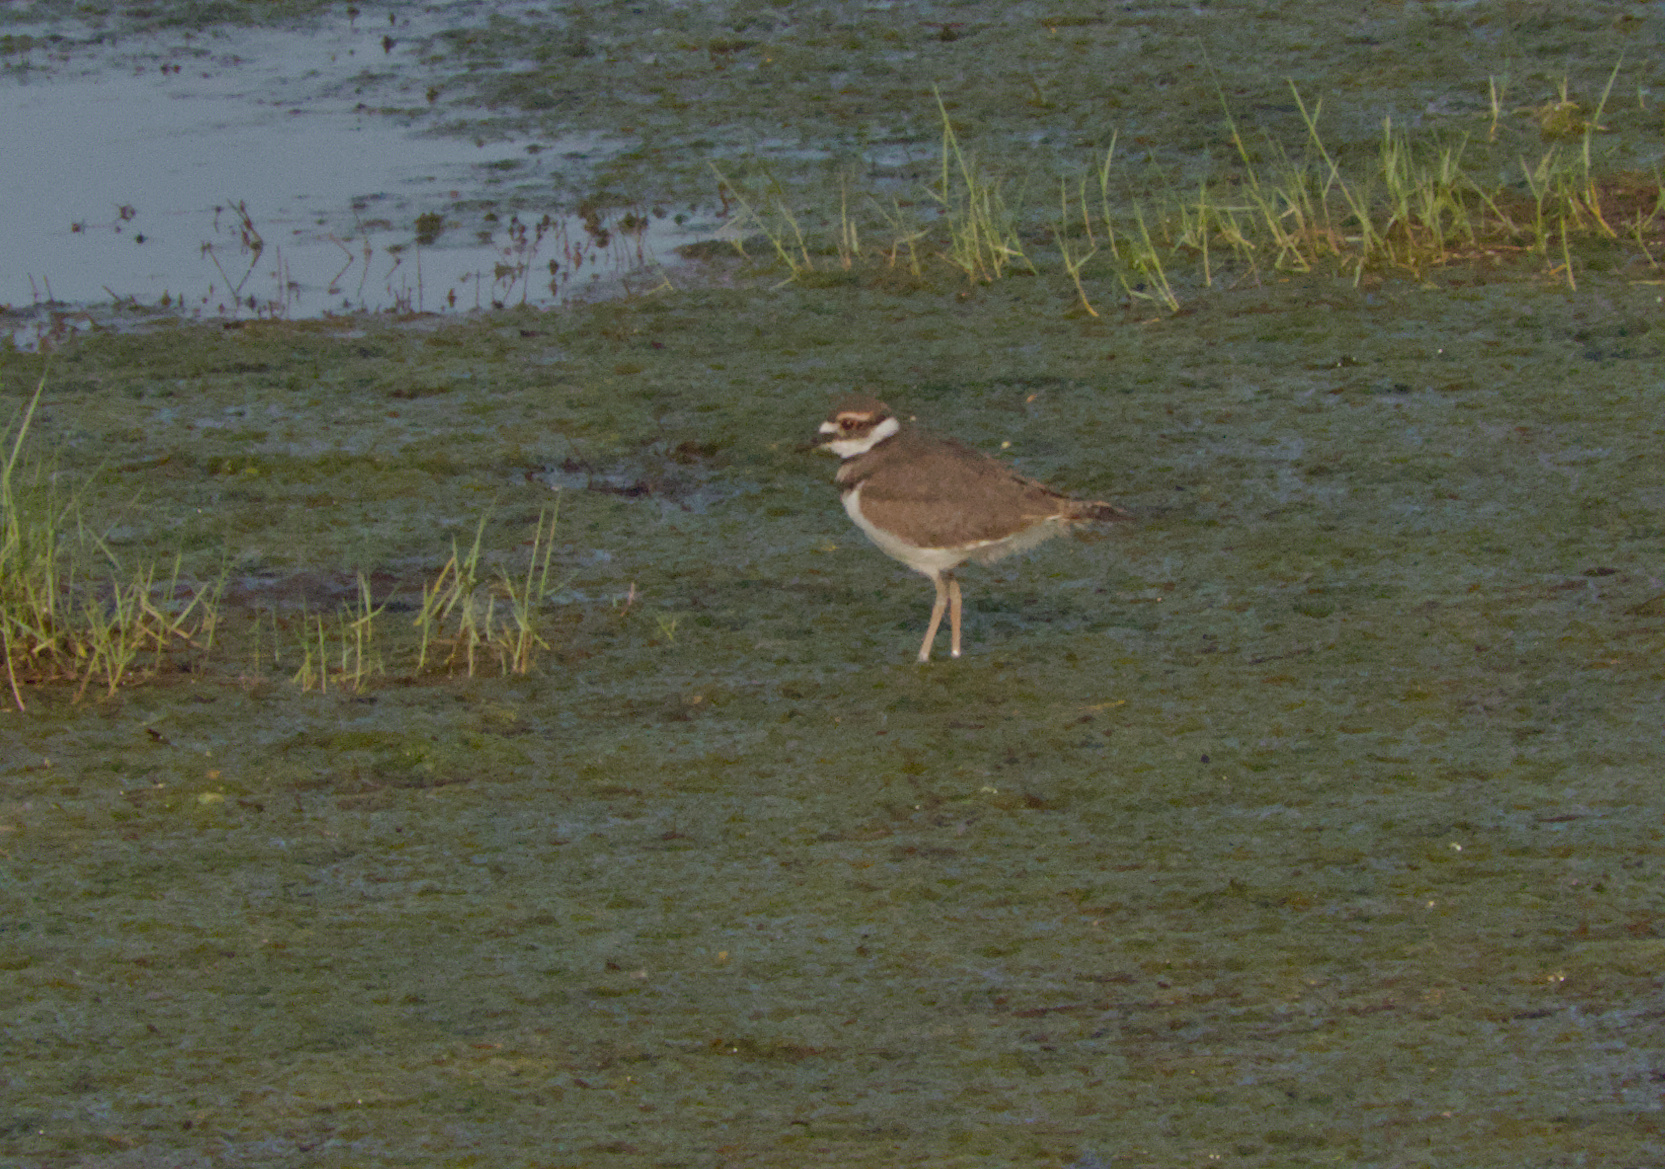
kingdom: Animalia
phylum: Chordata
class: Aves
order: Charadriiformes
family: Charadriidae
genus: Charadrius
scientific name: Charadrius vociferus
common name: Killdeer
